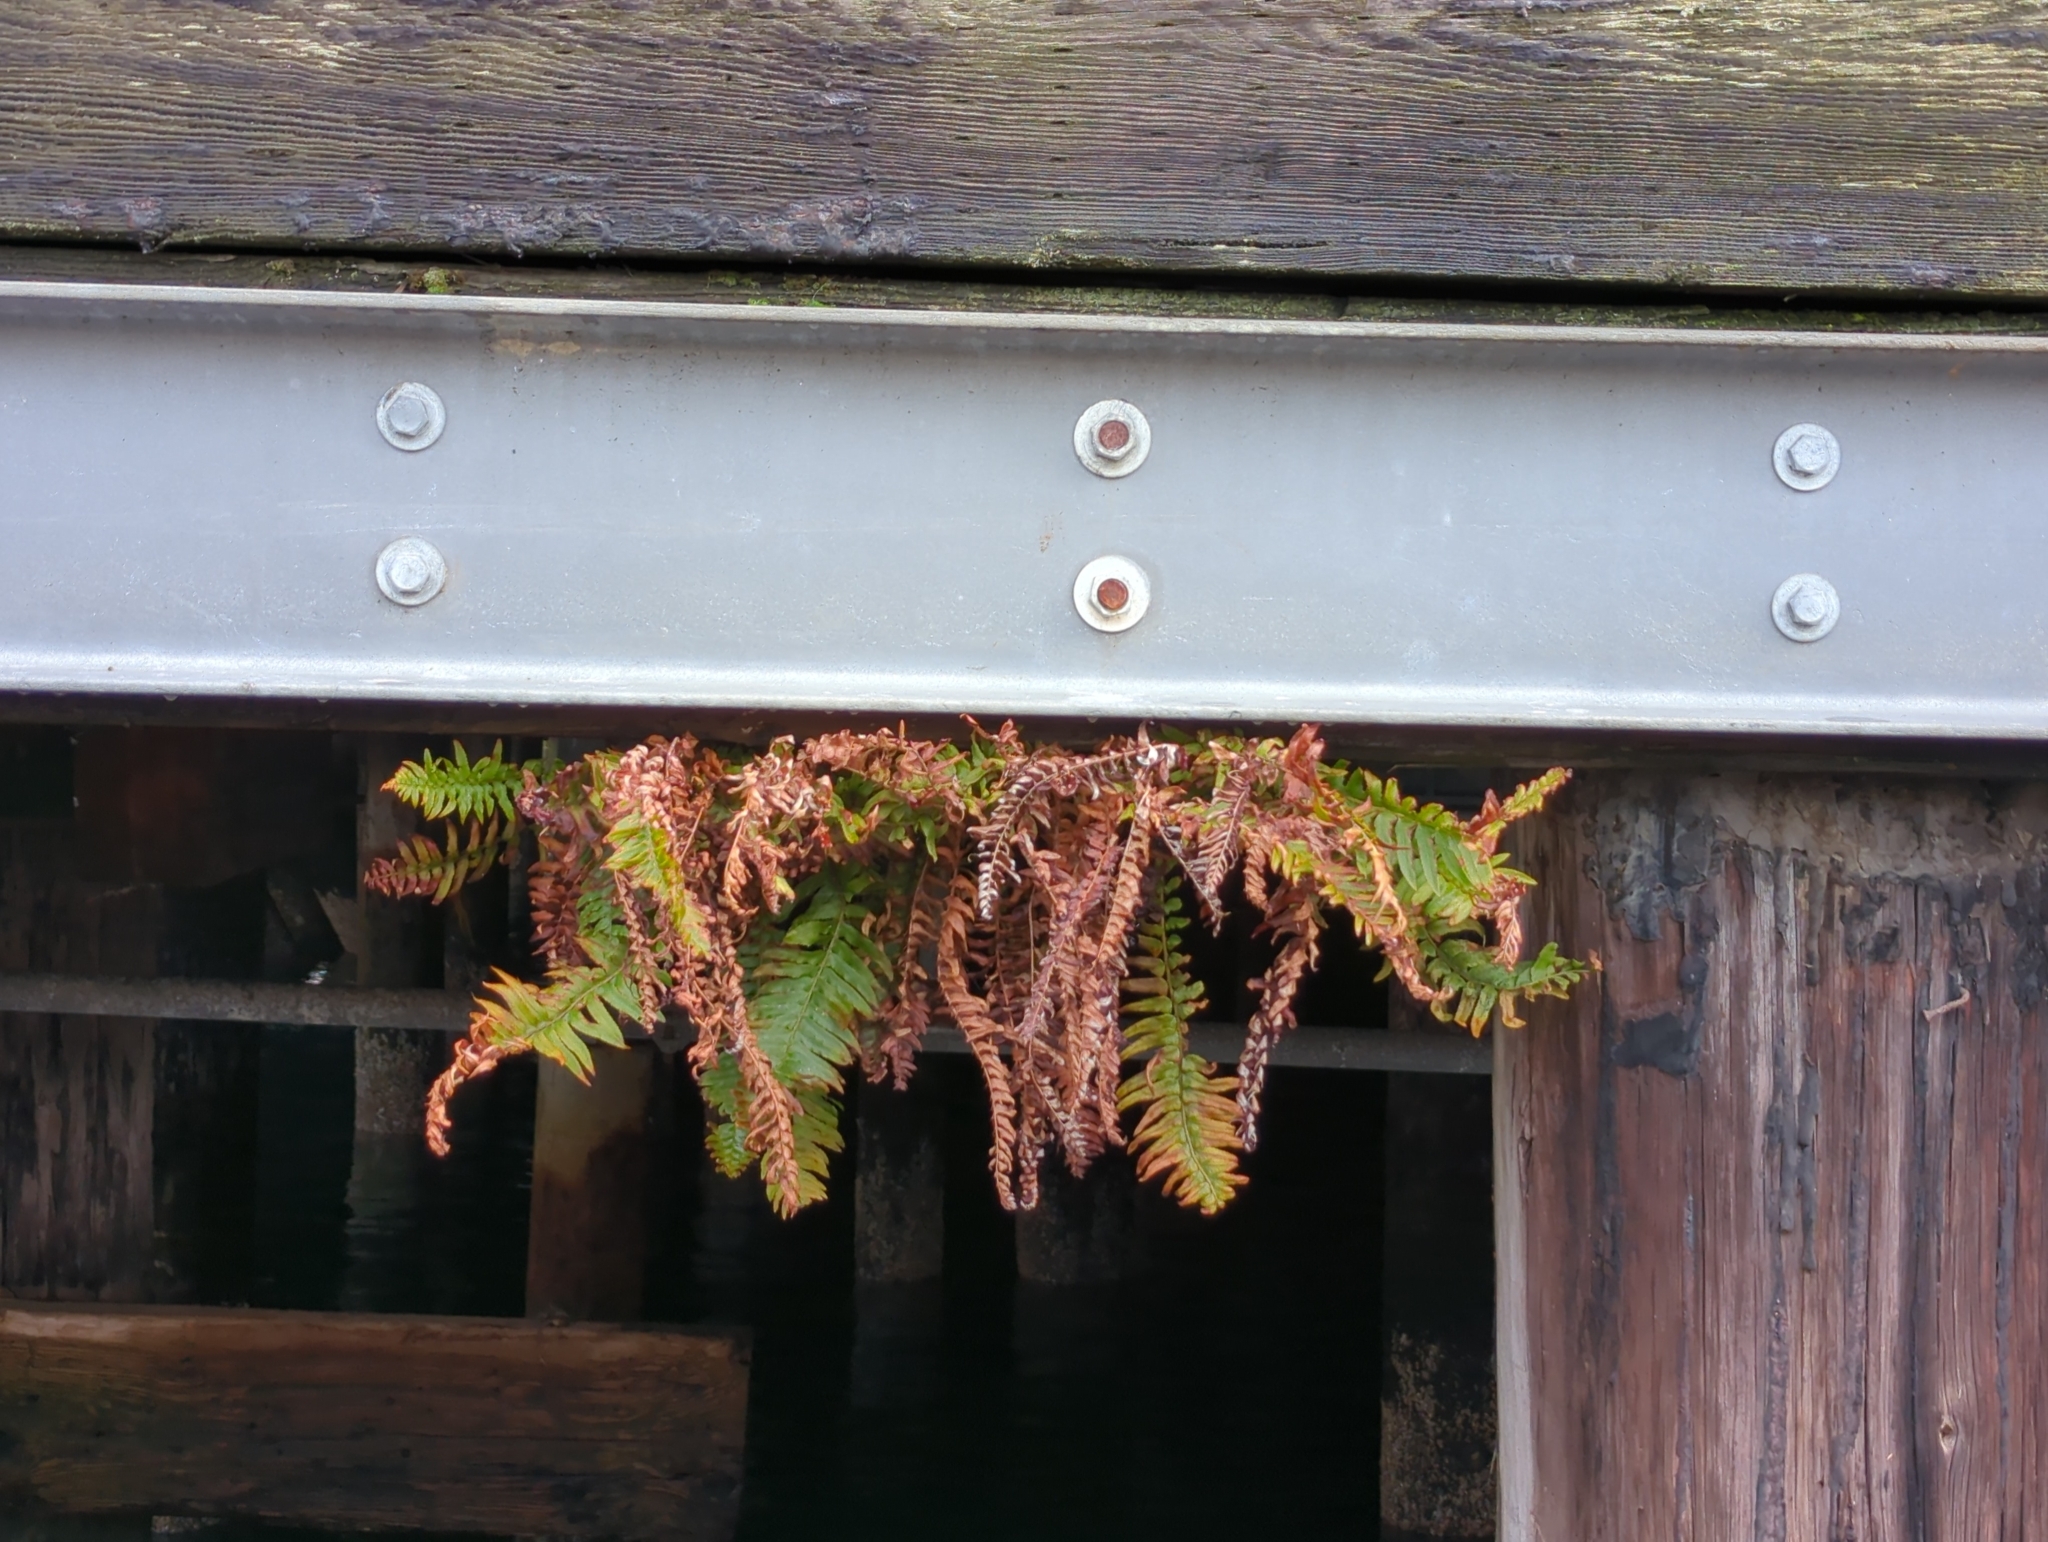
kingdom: Plantae
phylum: Tracheophyta
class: Polypodiopsida
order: Polypodiales
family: Dryopteridaceae
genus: Polystichum
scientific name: Polystichum munitum
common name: Western sword-fern
